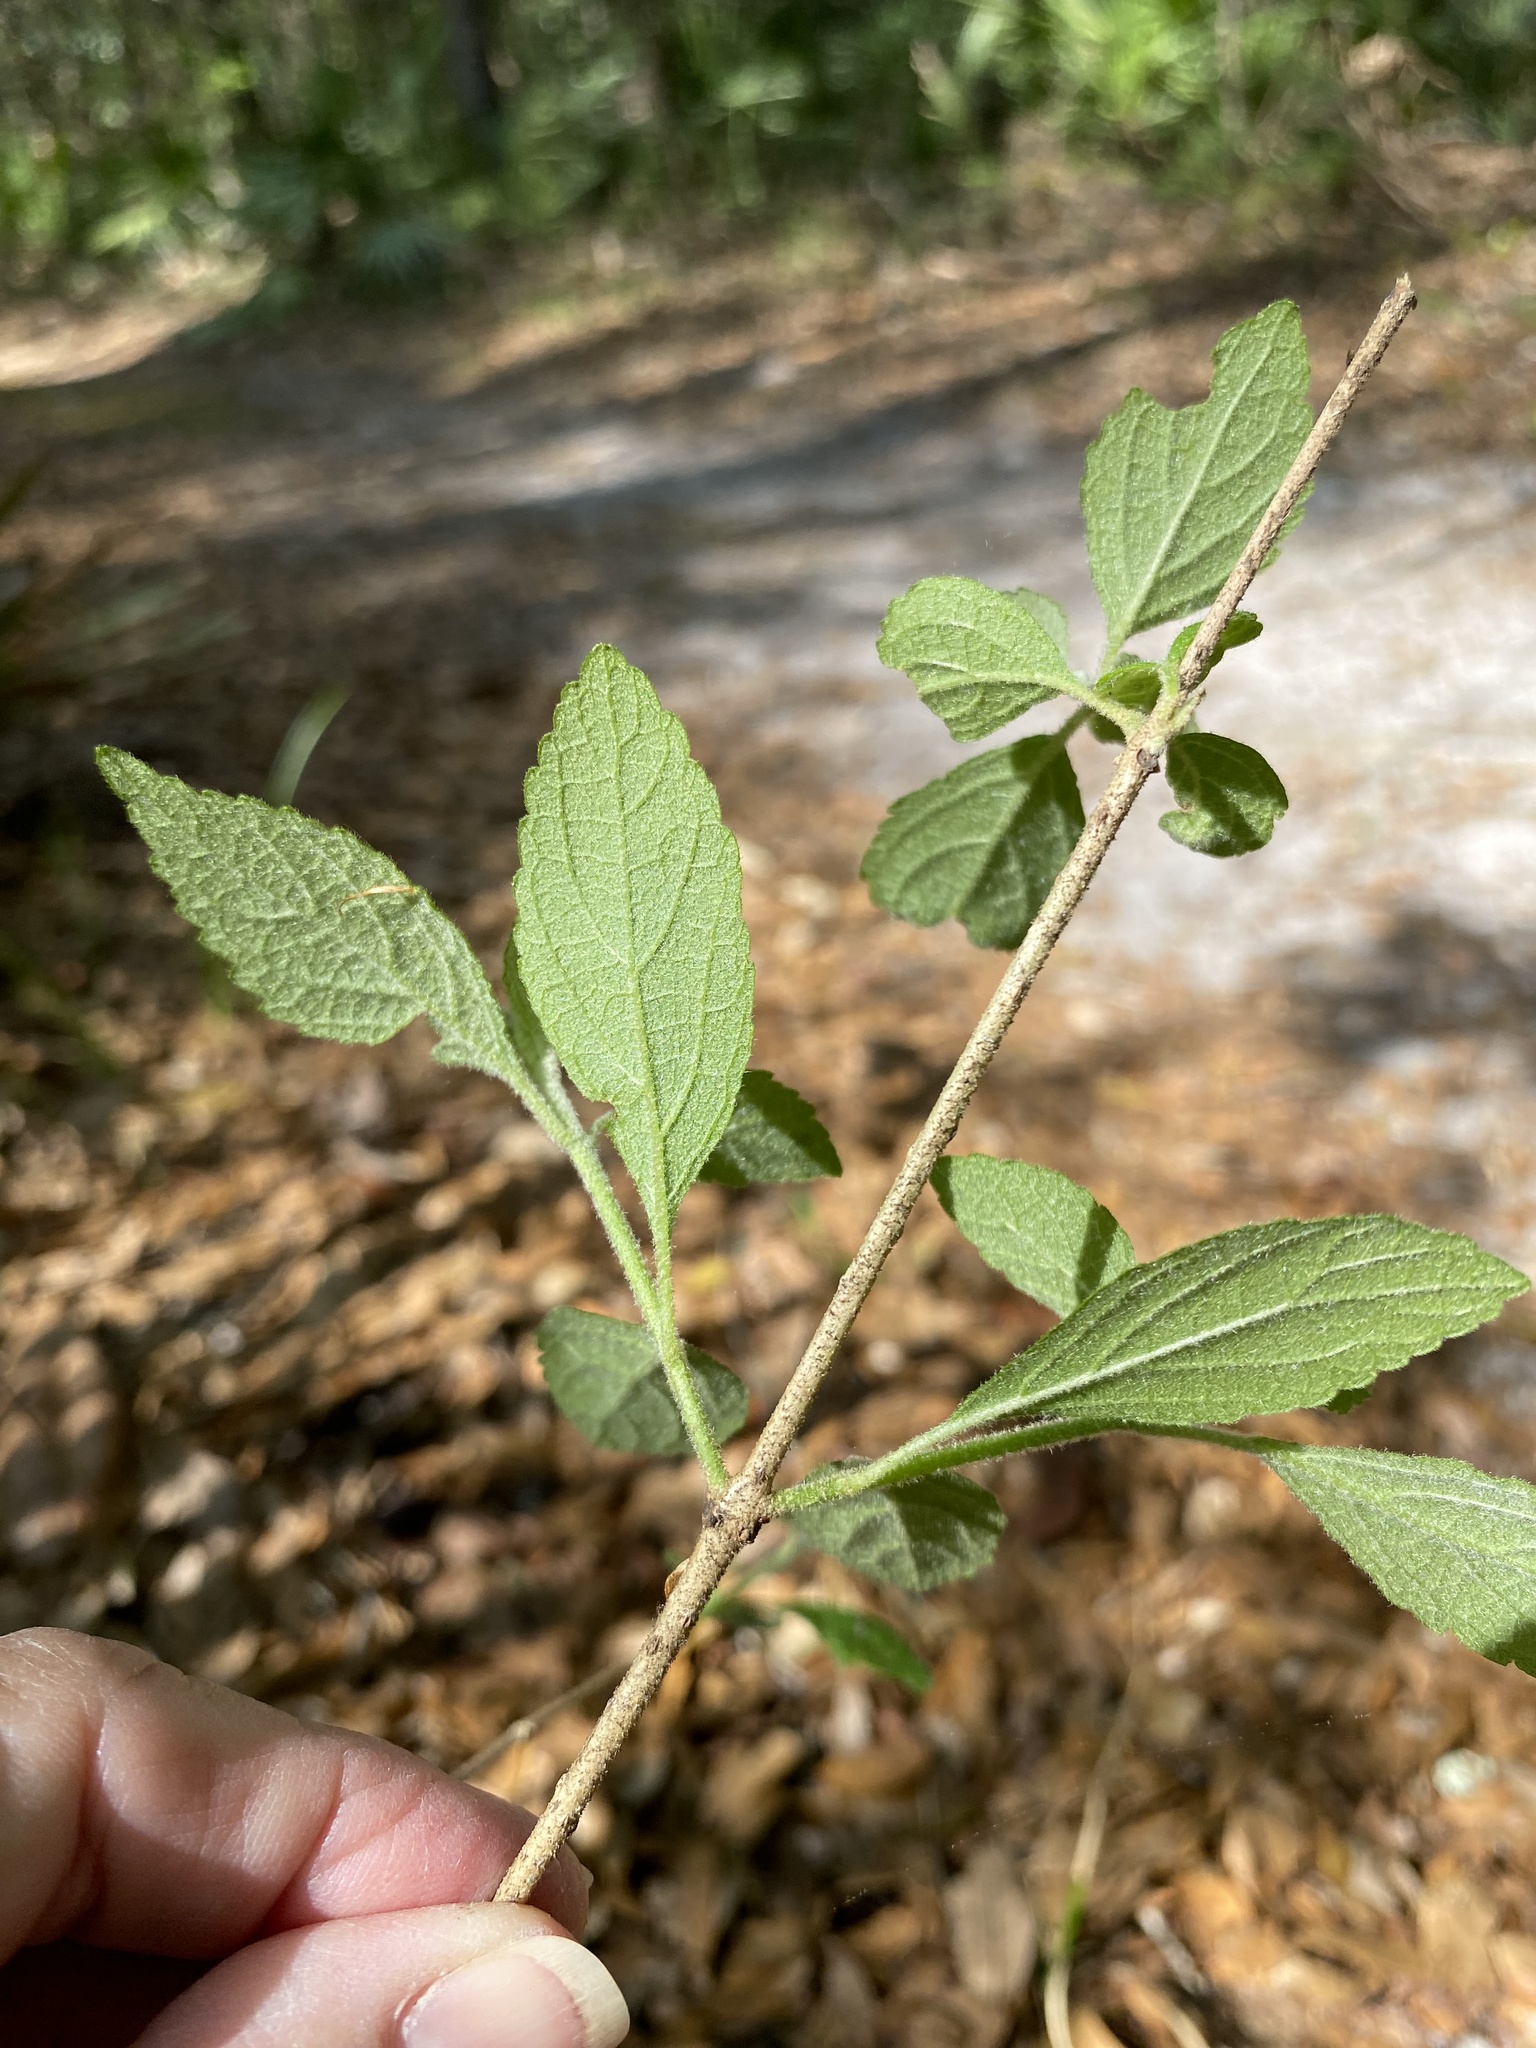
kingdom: Plantae
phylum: Tracheophyta
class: Magnoliopsida
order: Lamiales
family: Lamiaceae
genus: Callicarpa
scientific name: Callicarpa americana
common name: American beautyberry
